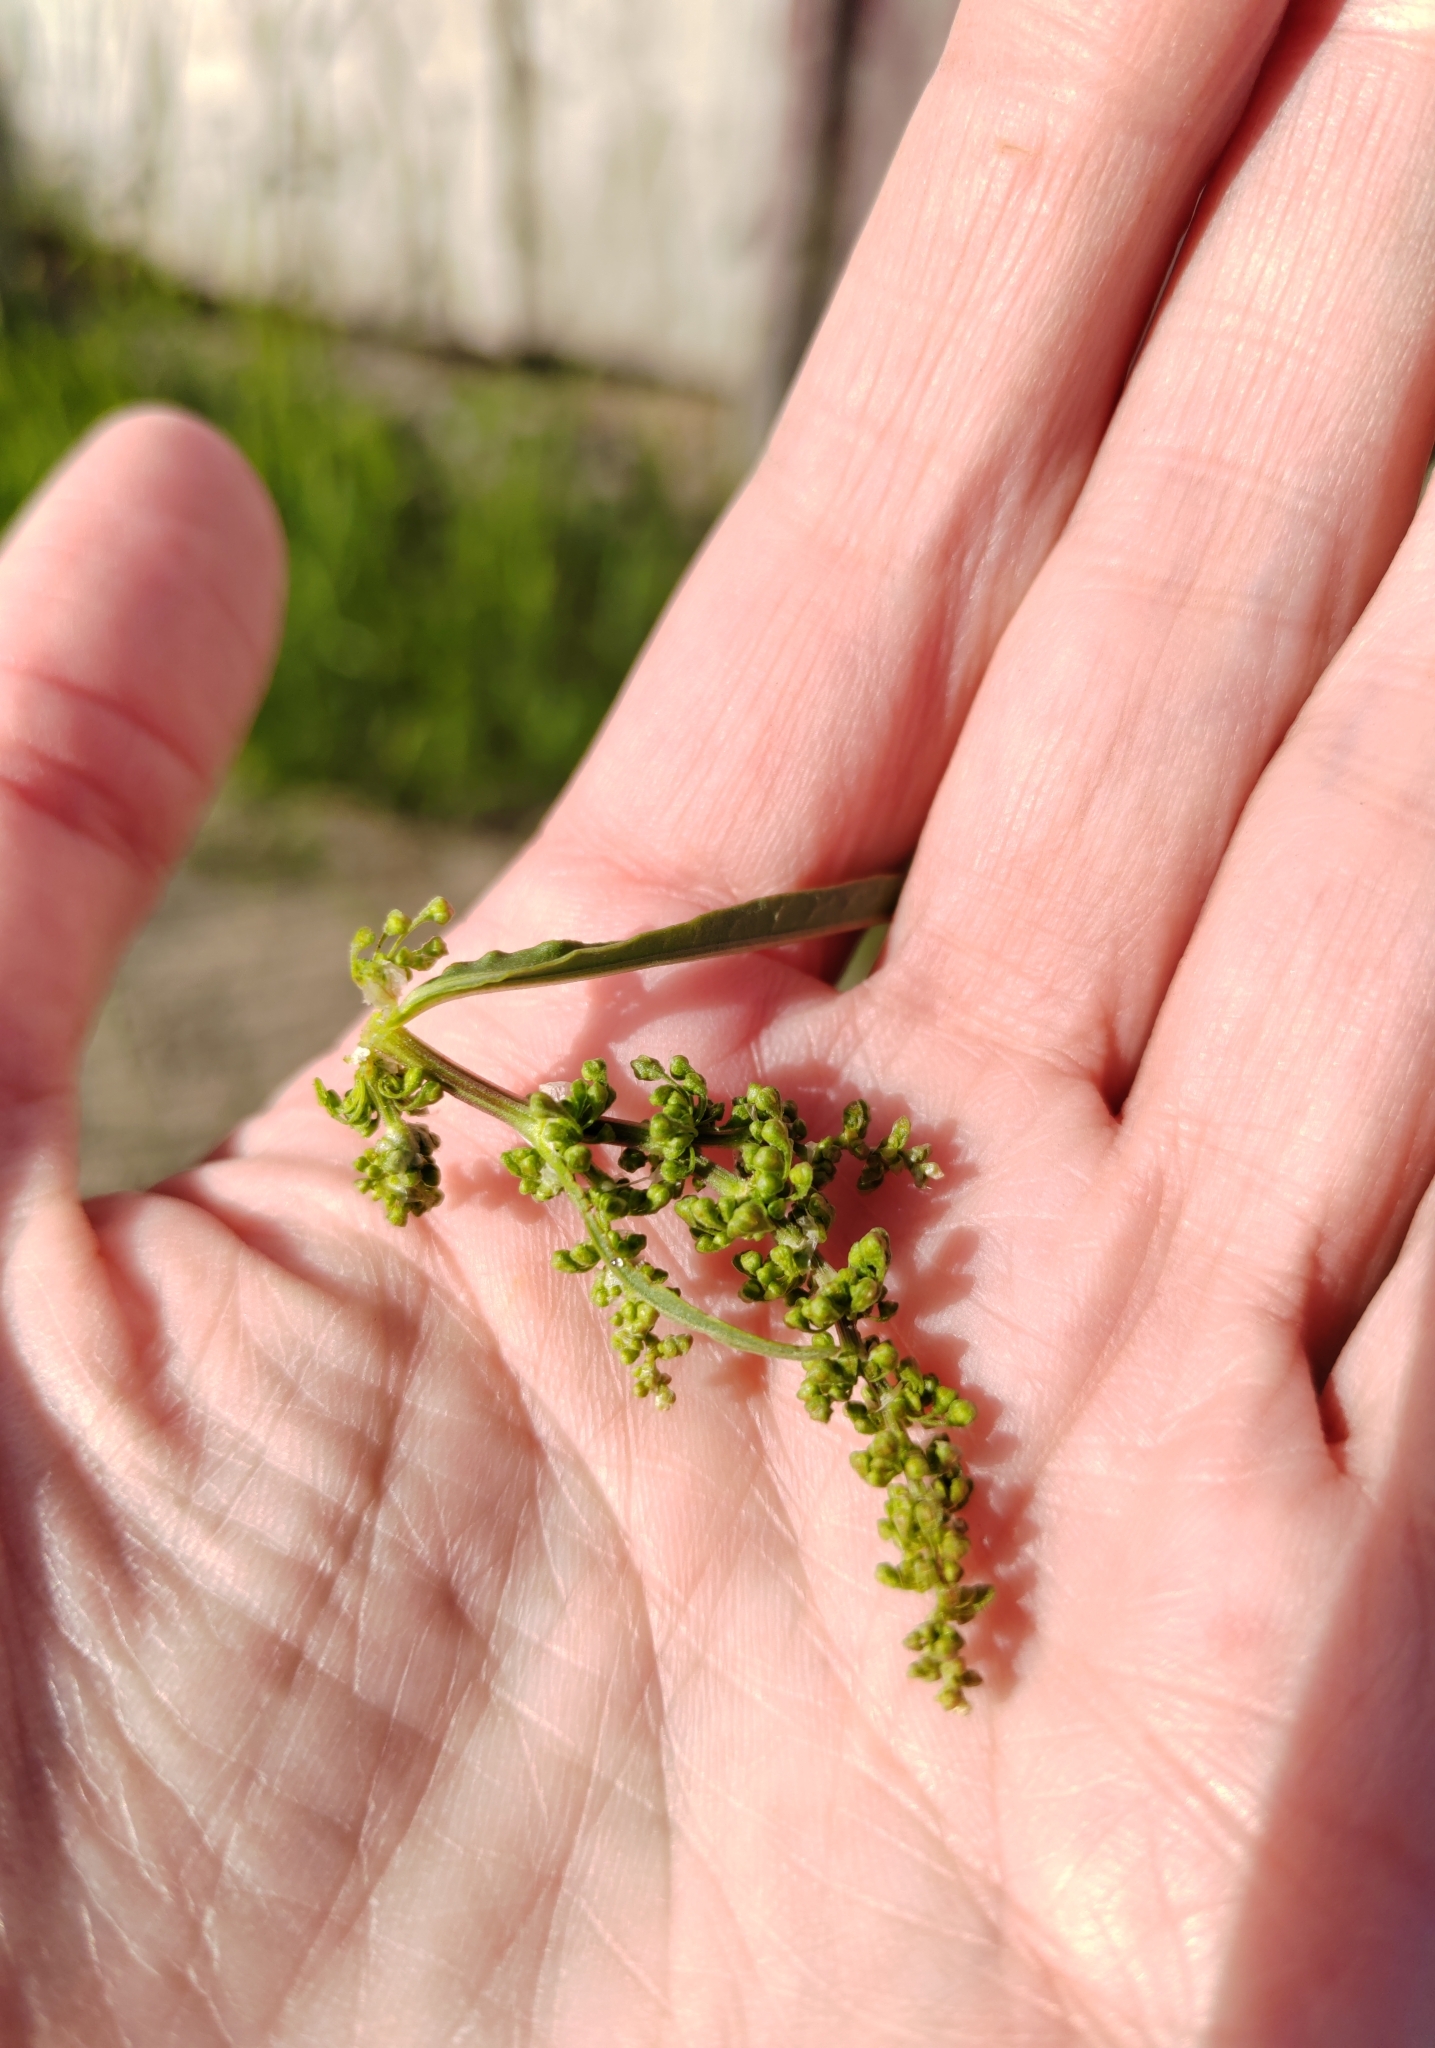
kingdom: Plantae
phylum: Tracheophyta
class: Magnoliopsida
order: Caryophyllales
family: Polygonaceae
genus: Rumex
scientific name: Rumex pseudonatronatus
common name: Field dock
